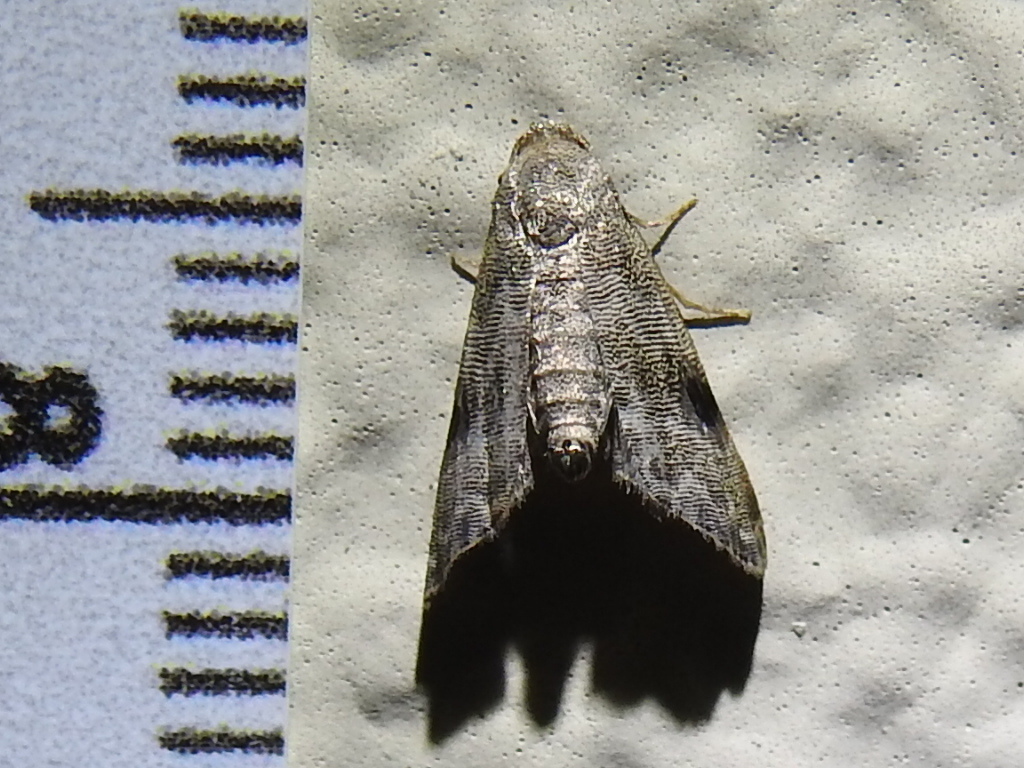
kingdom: Animalia
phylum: Arthropoda
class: Insecta
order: Lepidoptera
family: Noctuidae
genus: Abablemma
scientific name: Abablemma brimleyana
